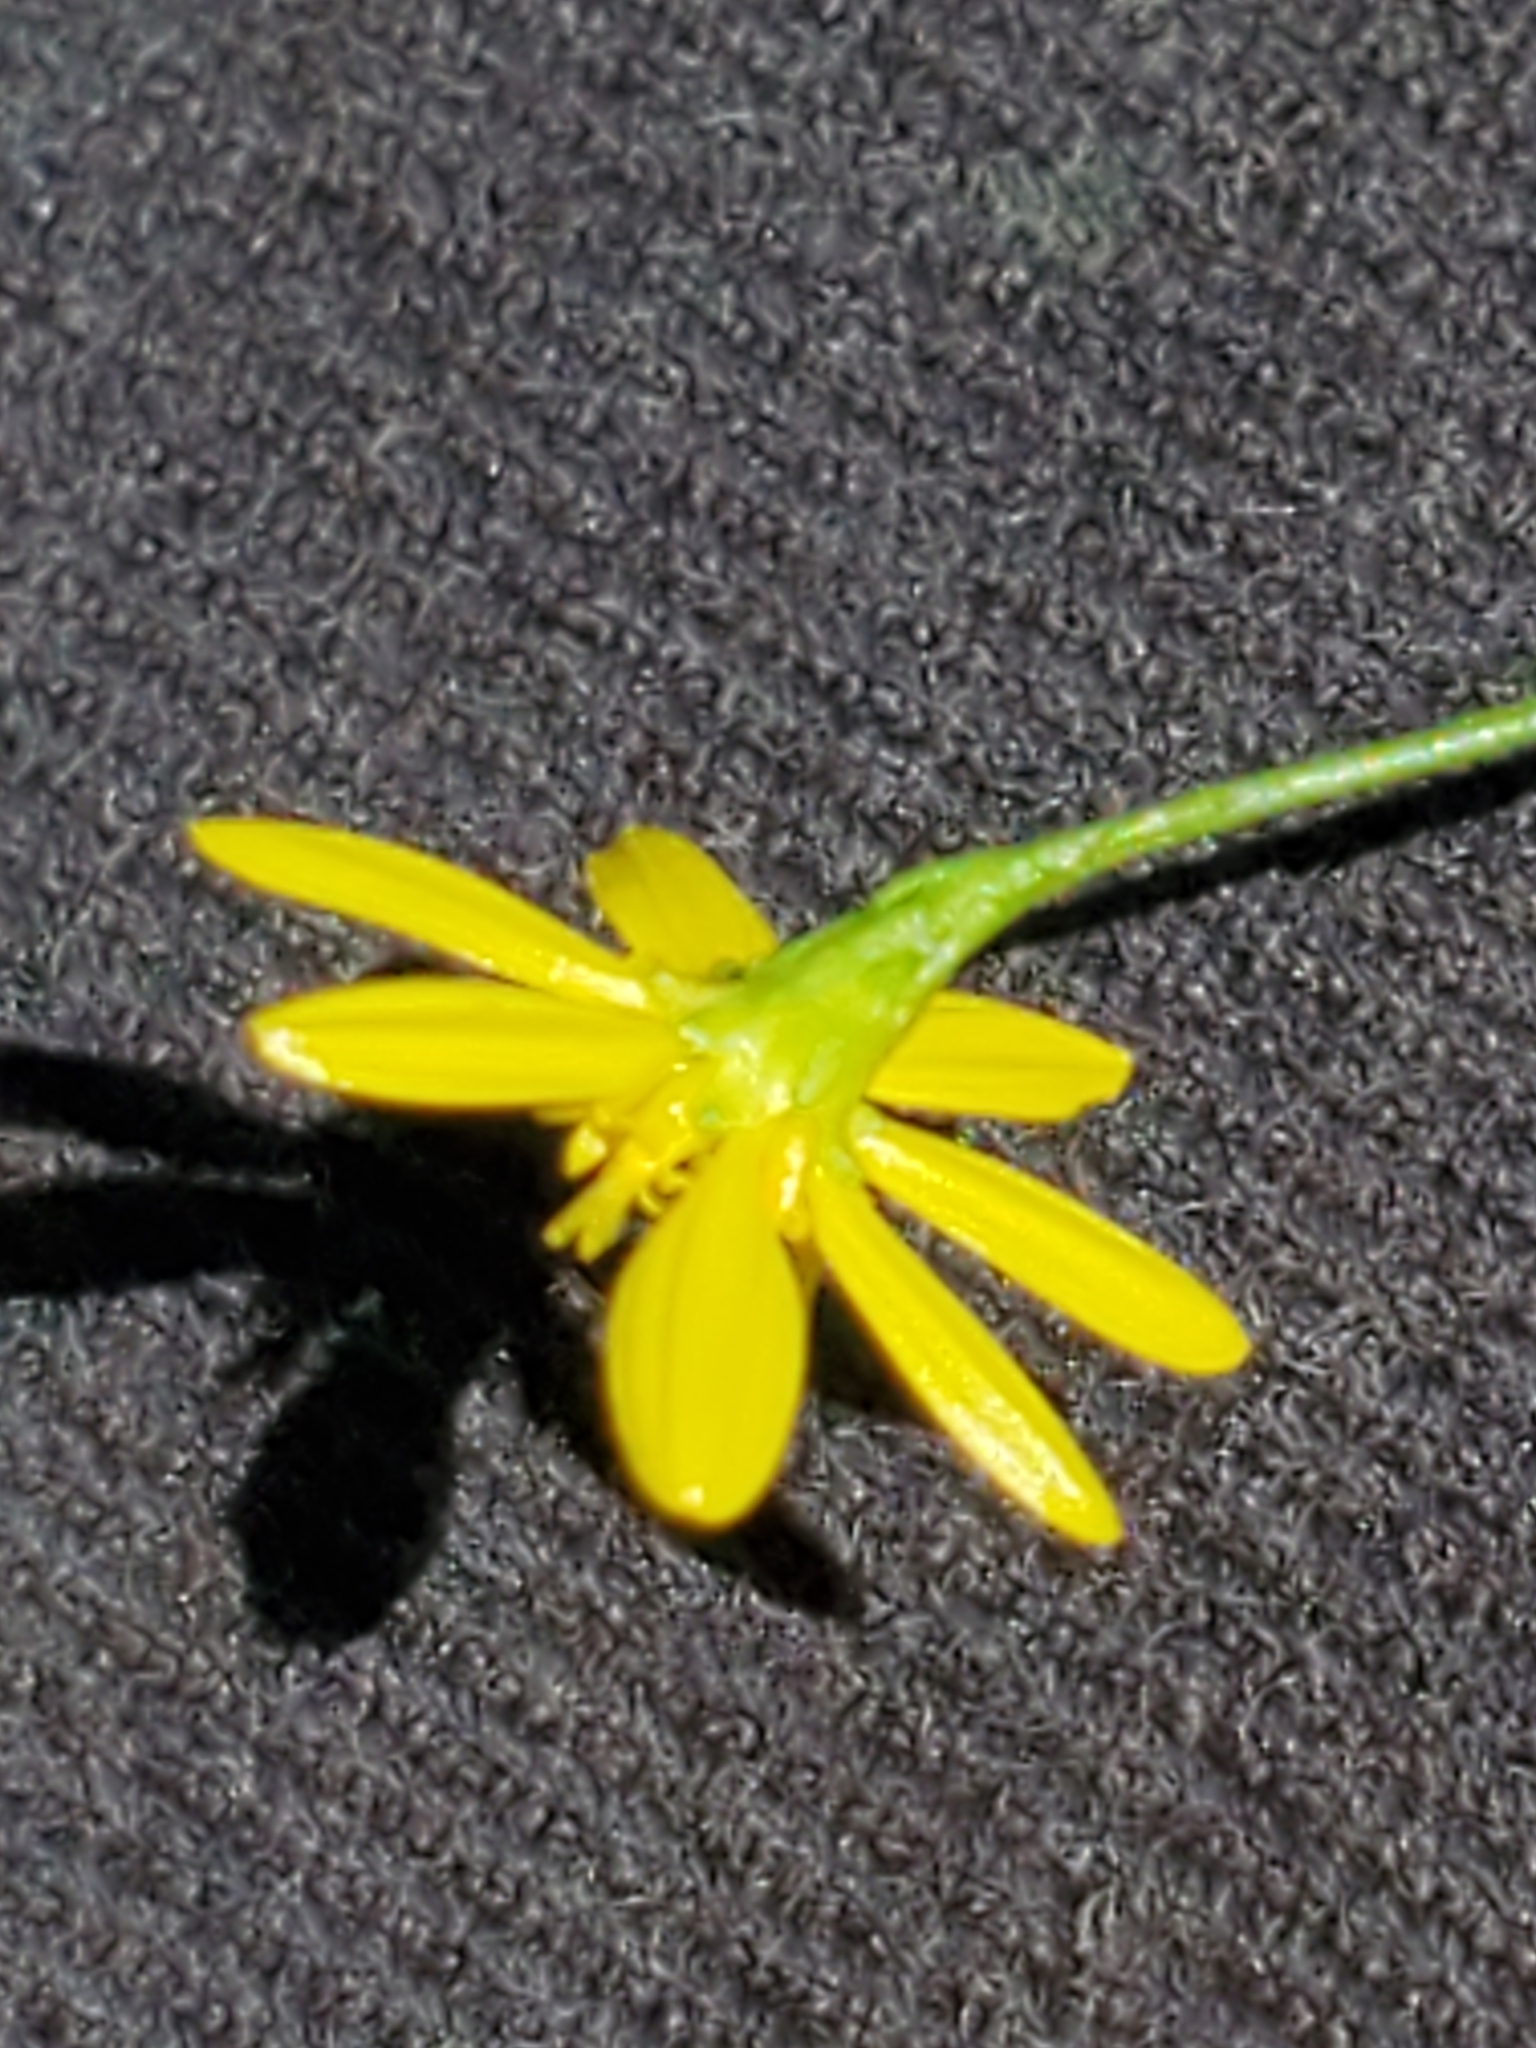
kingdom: Plantae
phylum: Tracheophyta
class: Magnoliopsida
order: Asterales
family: Asteraceae
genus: Gutierrezia
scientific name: Gutierrezia texana
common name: Texas snakeweed
